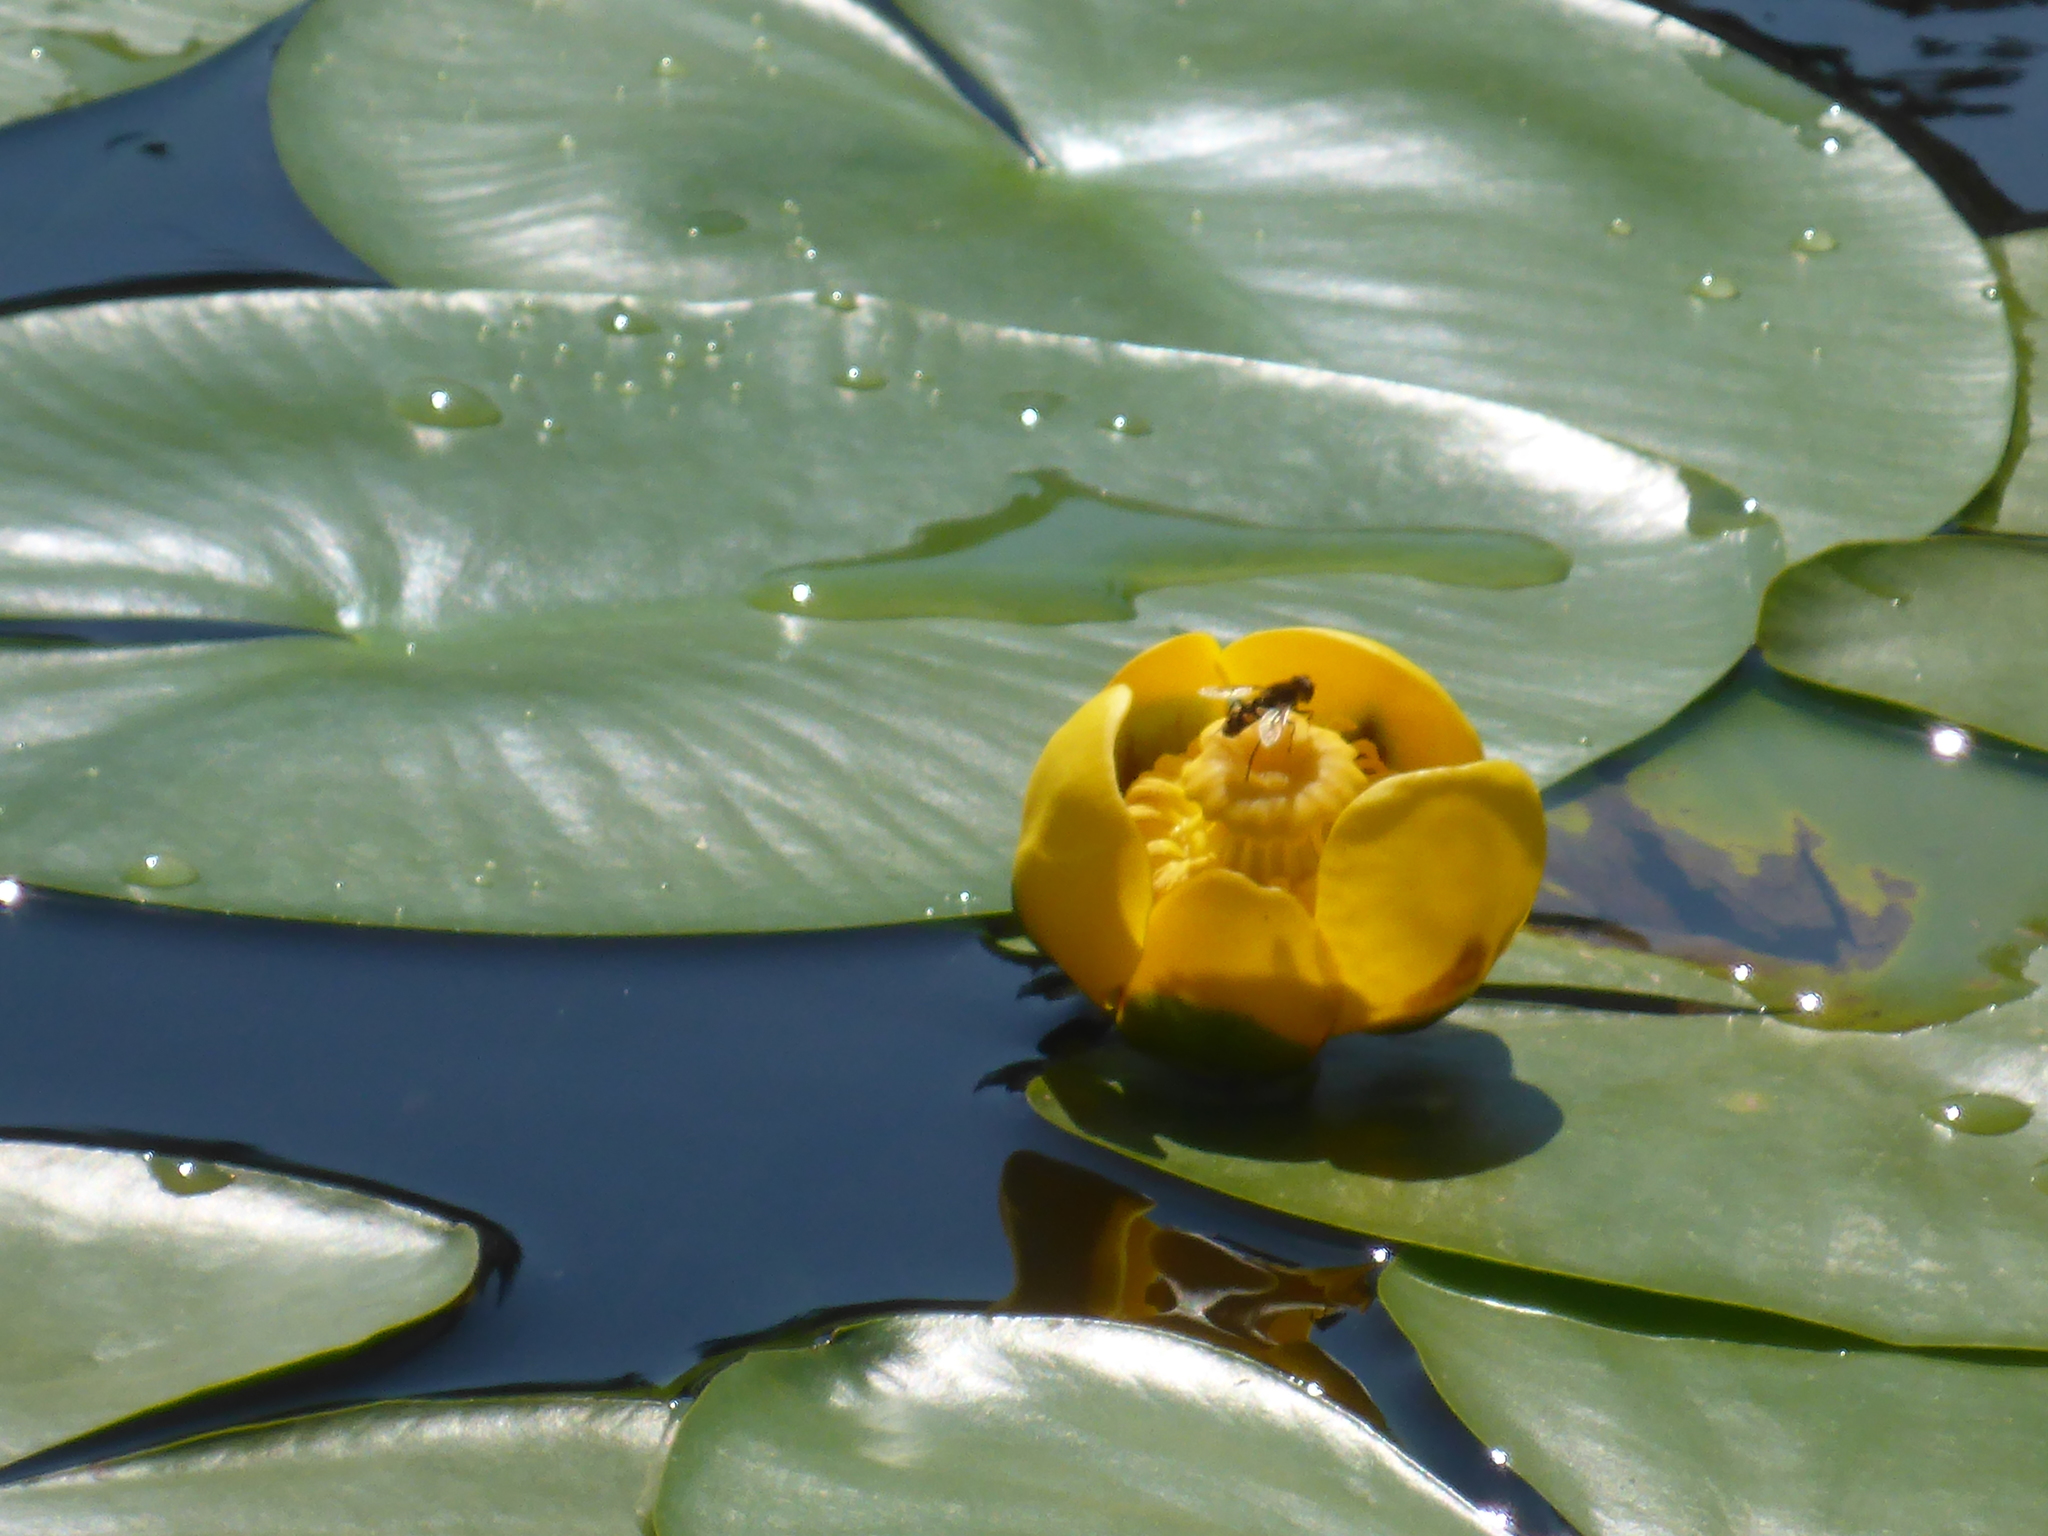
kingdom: Animalia
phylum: Arthropoda
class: Insecta
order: Diptera
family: Syrphidae
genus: Eurimyia
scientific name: Eurimyia stipatus
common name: Long-nosed swamp fly
